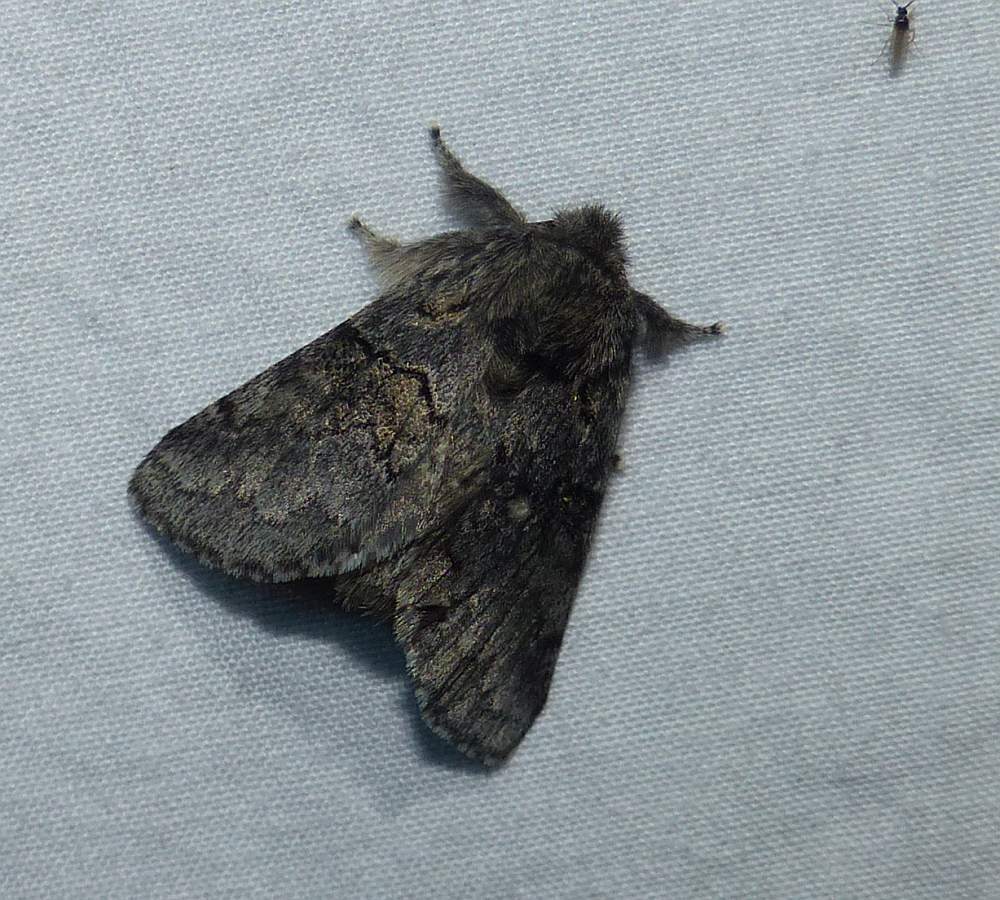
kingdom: Animalia
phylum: Arthropoda
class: Insecta
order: Lepidoptera
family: Notodontidae
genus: Gluphisia
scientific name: Gluphisia septentrionis
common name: Common gluphisia
